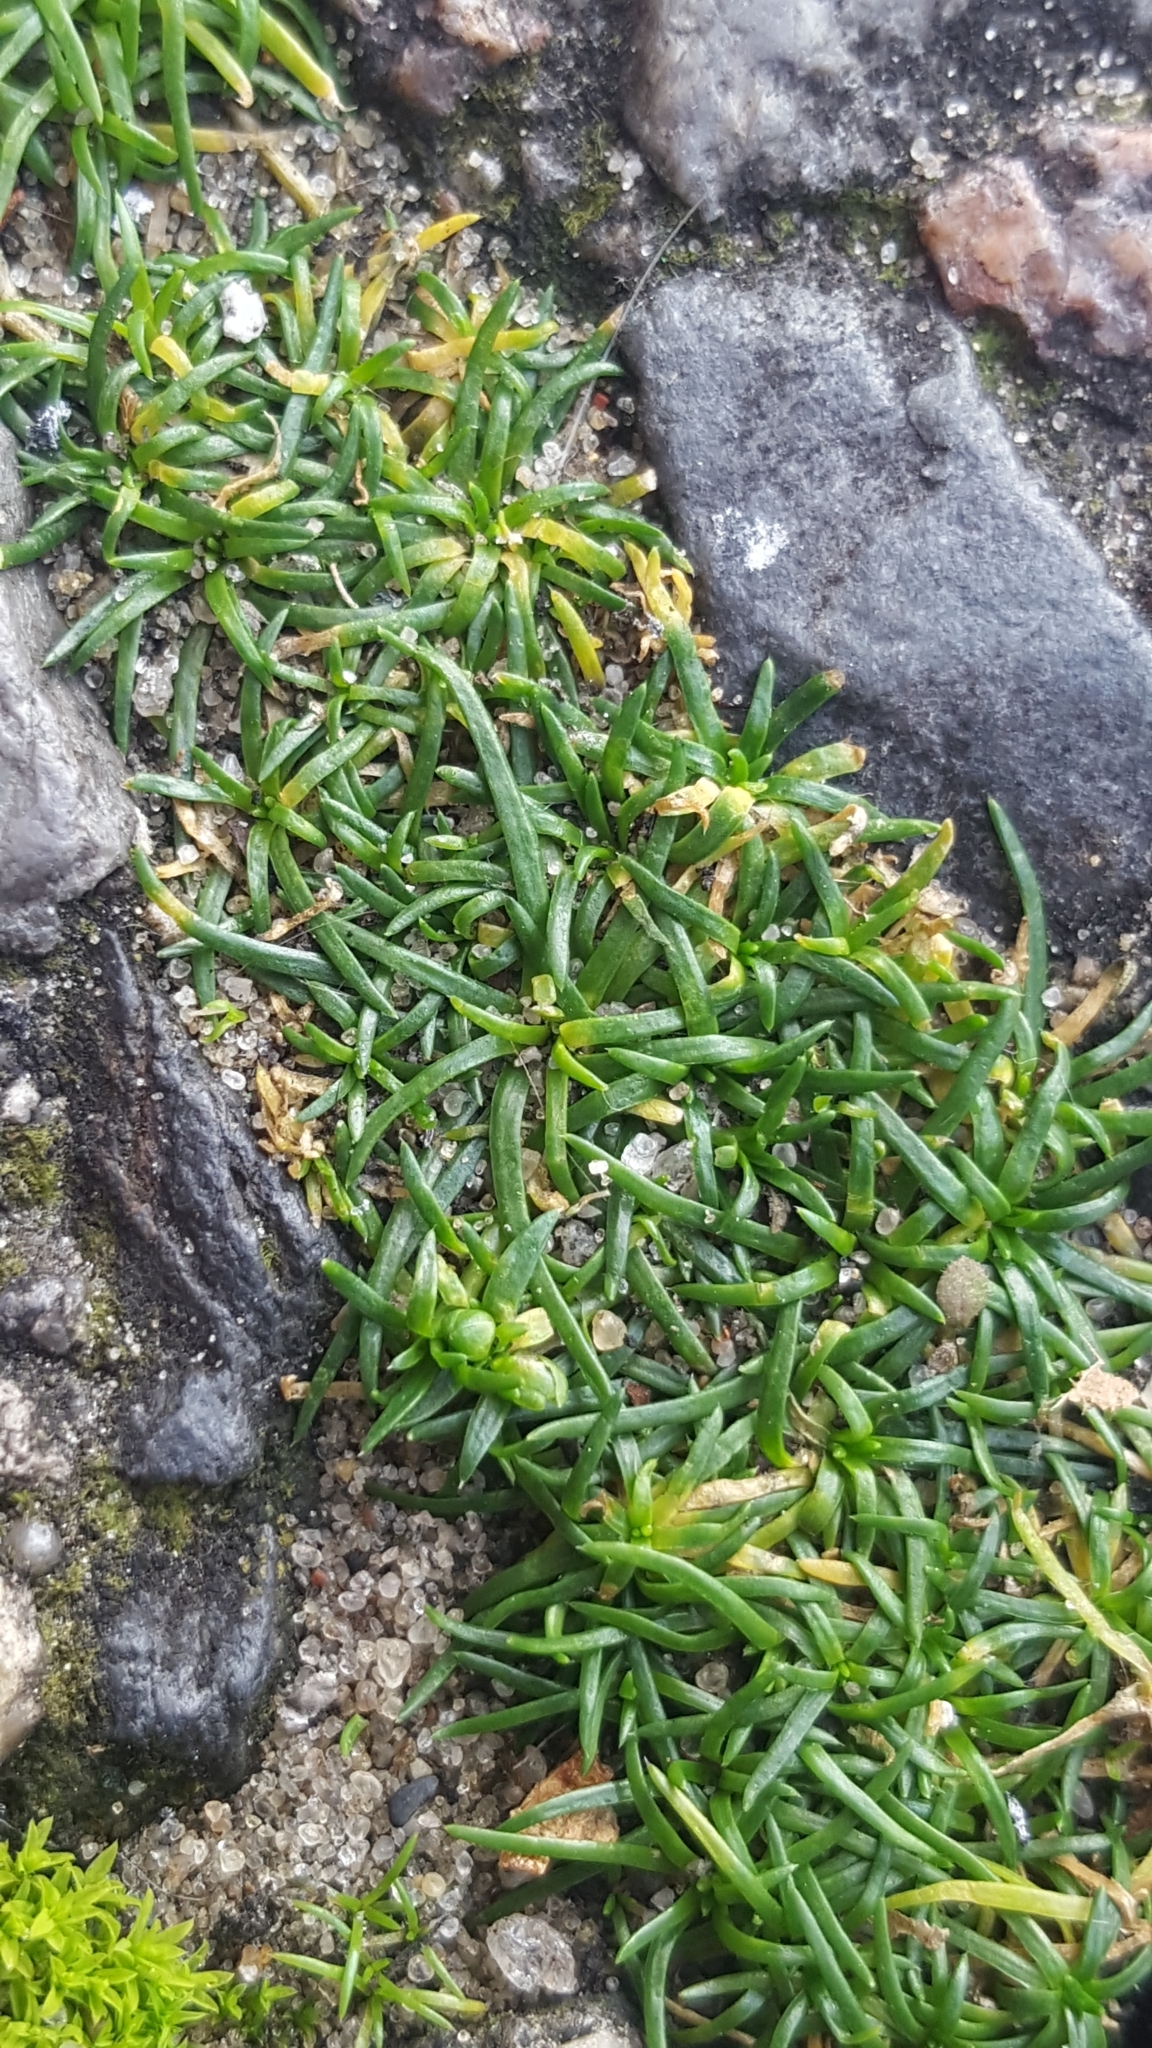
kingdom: Plantae
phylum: Tracheophyta
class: Magnoliopsida
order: Caryophyllales
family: Caryophyllaceae
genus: Sagina
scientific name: Sagina procumbens
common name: Procumbent pearlwort
